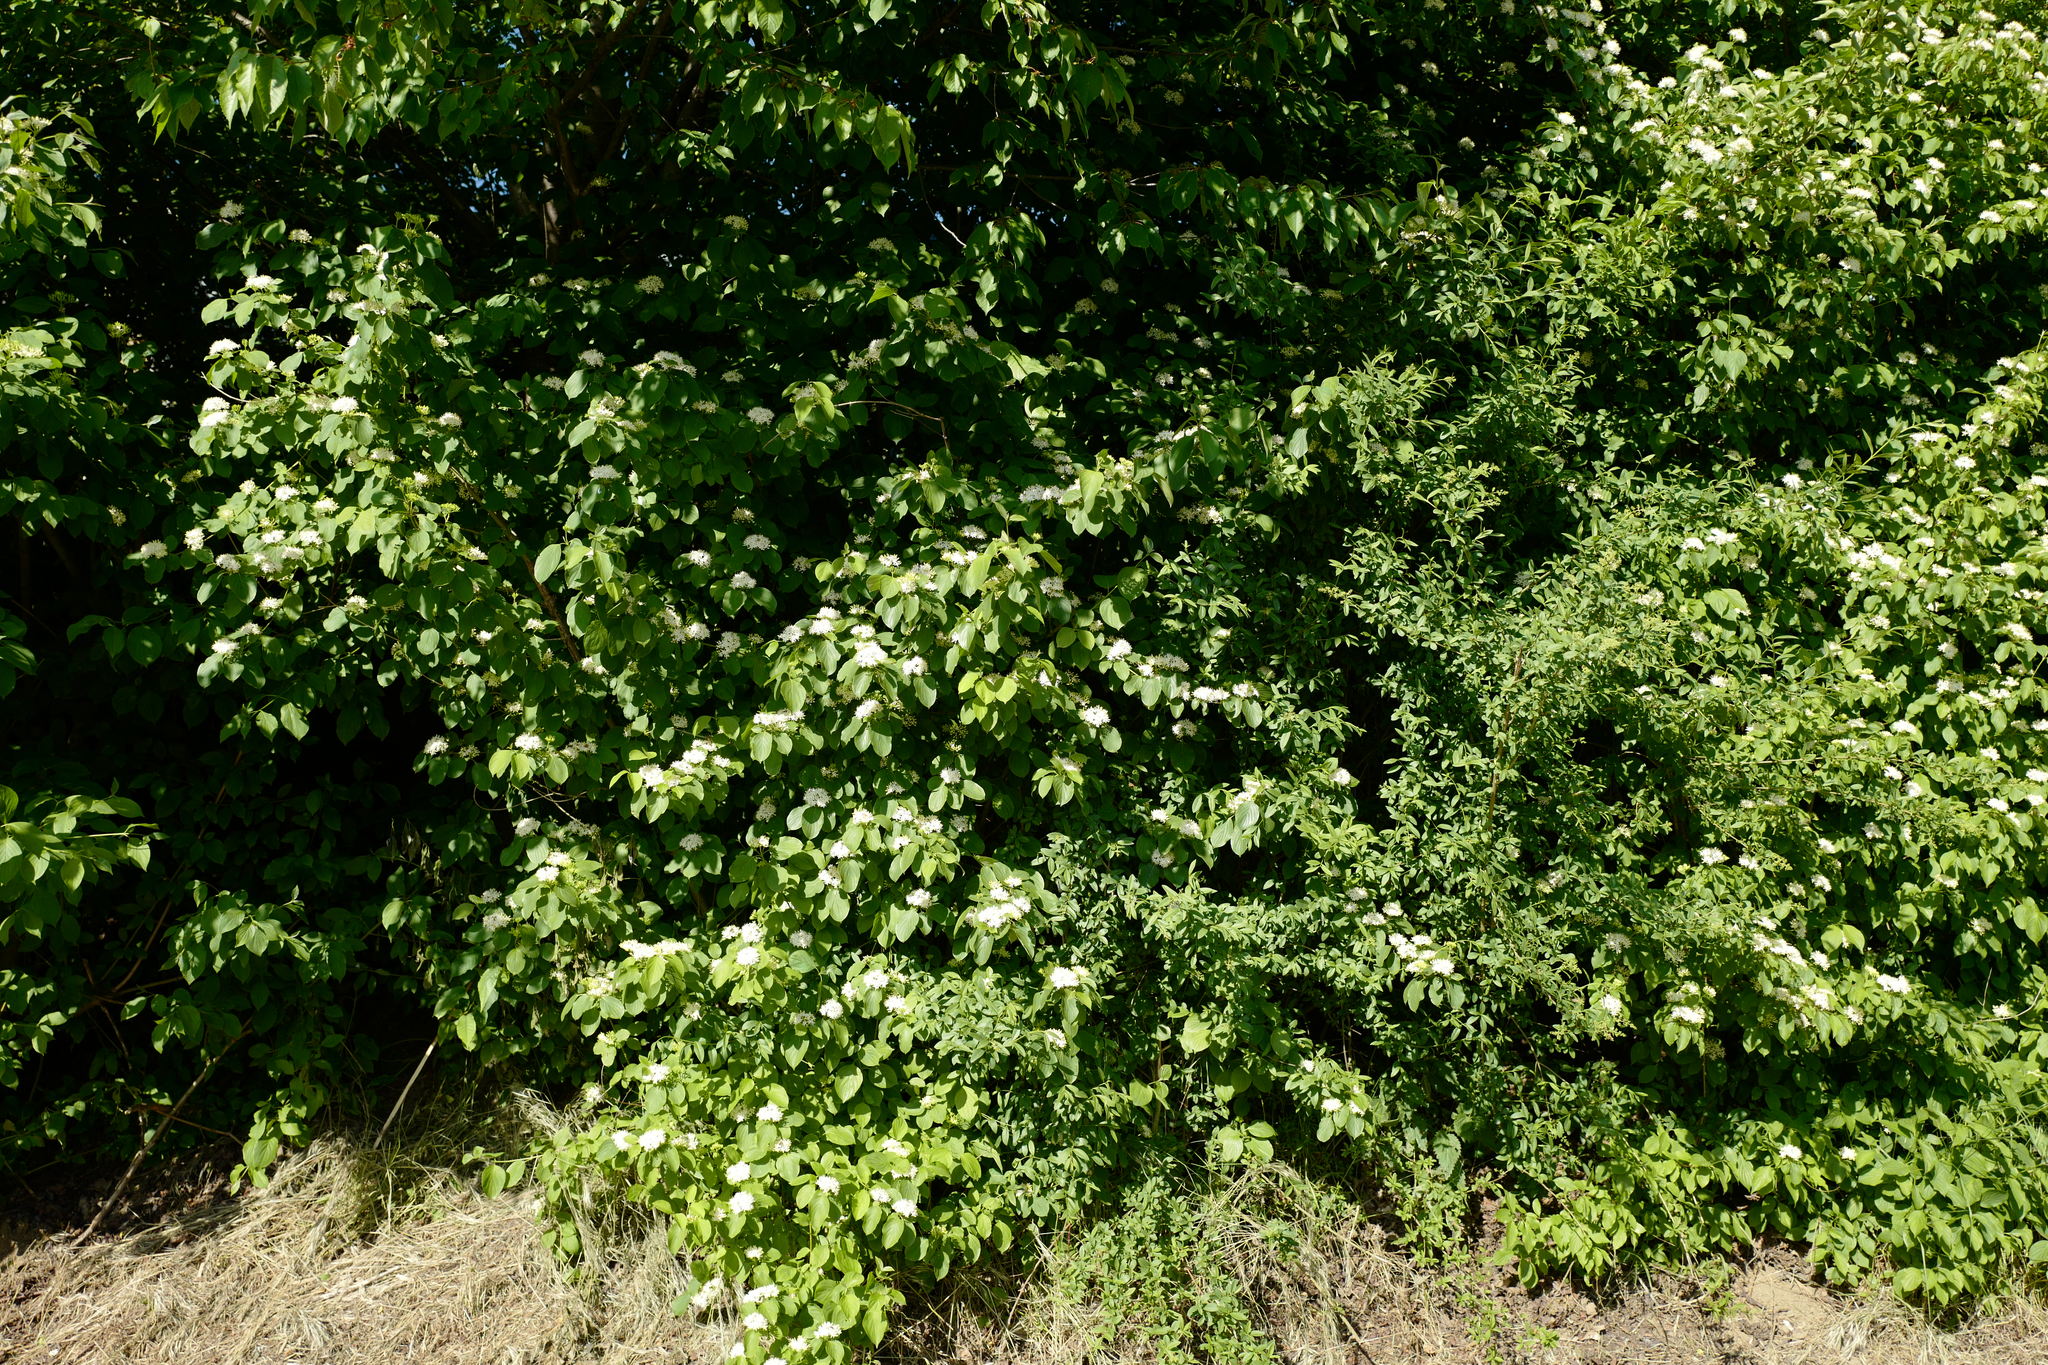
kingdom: Plantae
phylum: Tracheophyta
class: Magnoliopsida
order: Cornales
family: Cornaceae
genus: Cornus
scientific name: Cornus sanguinea
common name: Dogwood
